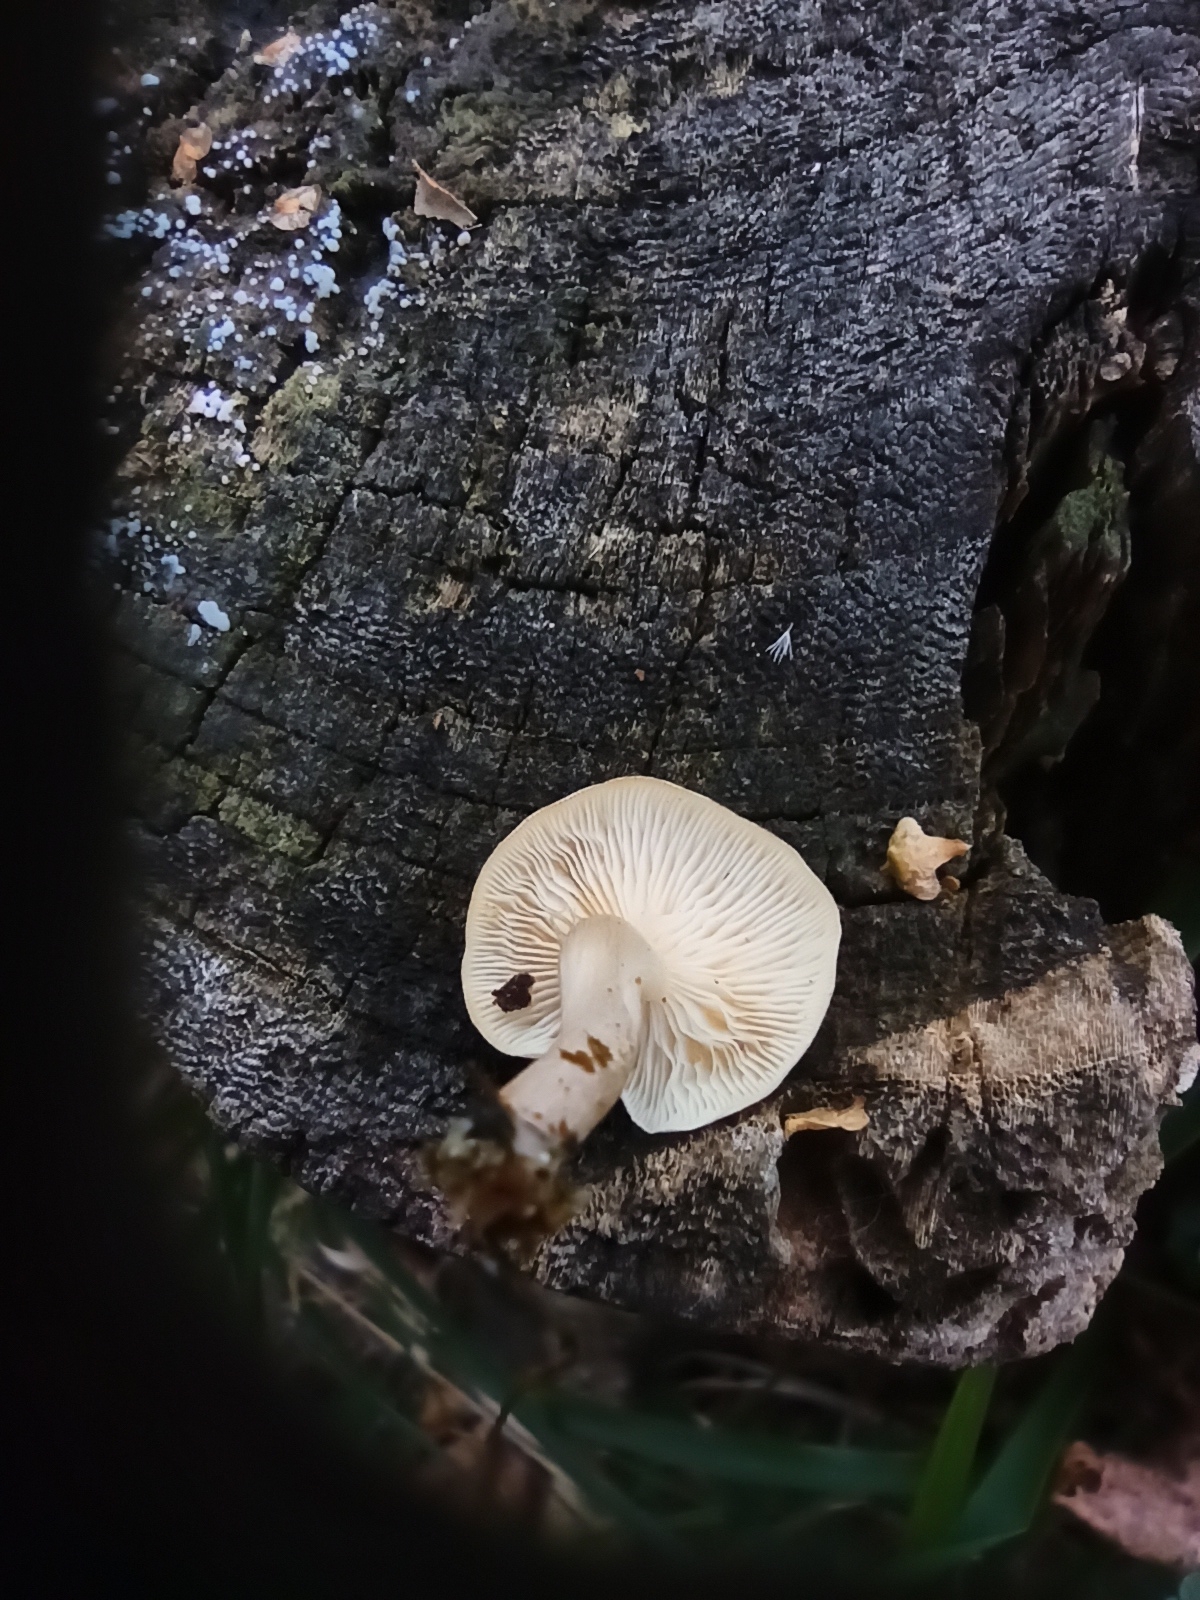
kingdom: Fungi
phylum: Basidiomycota
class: Agaricomycetes
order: Agaricales
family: Tricholomataceae
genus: Clitocybe
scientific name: Clitocybe truncicola
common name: Trunk funnel
